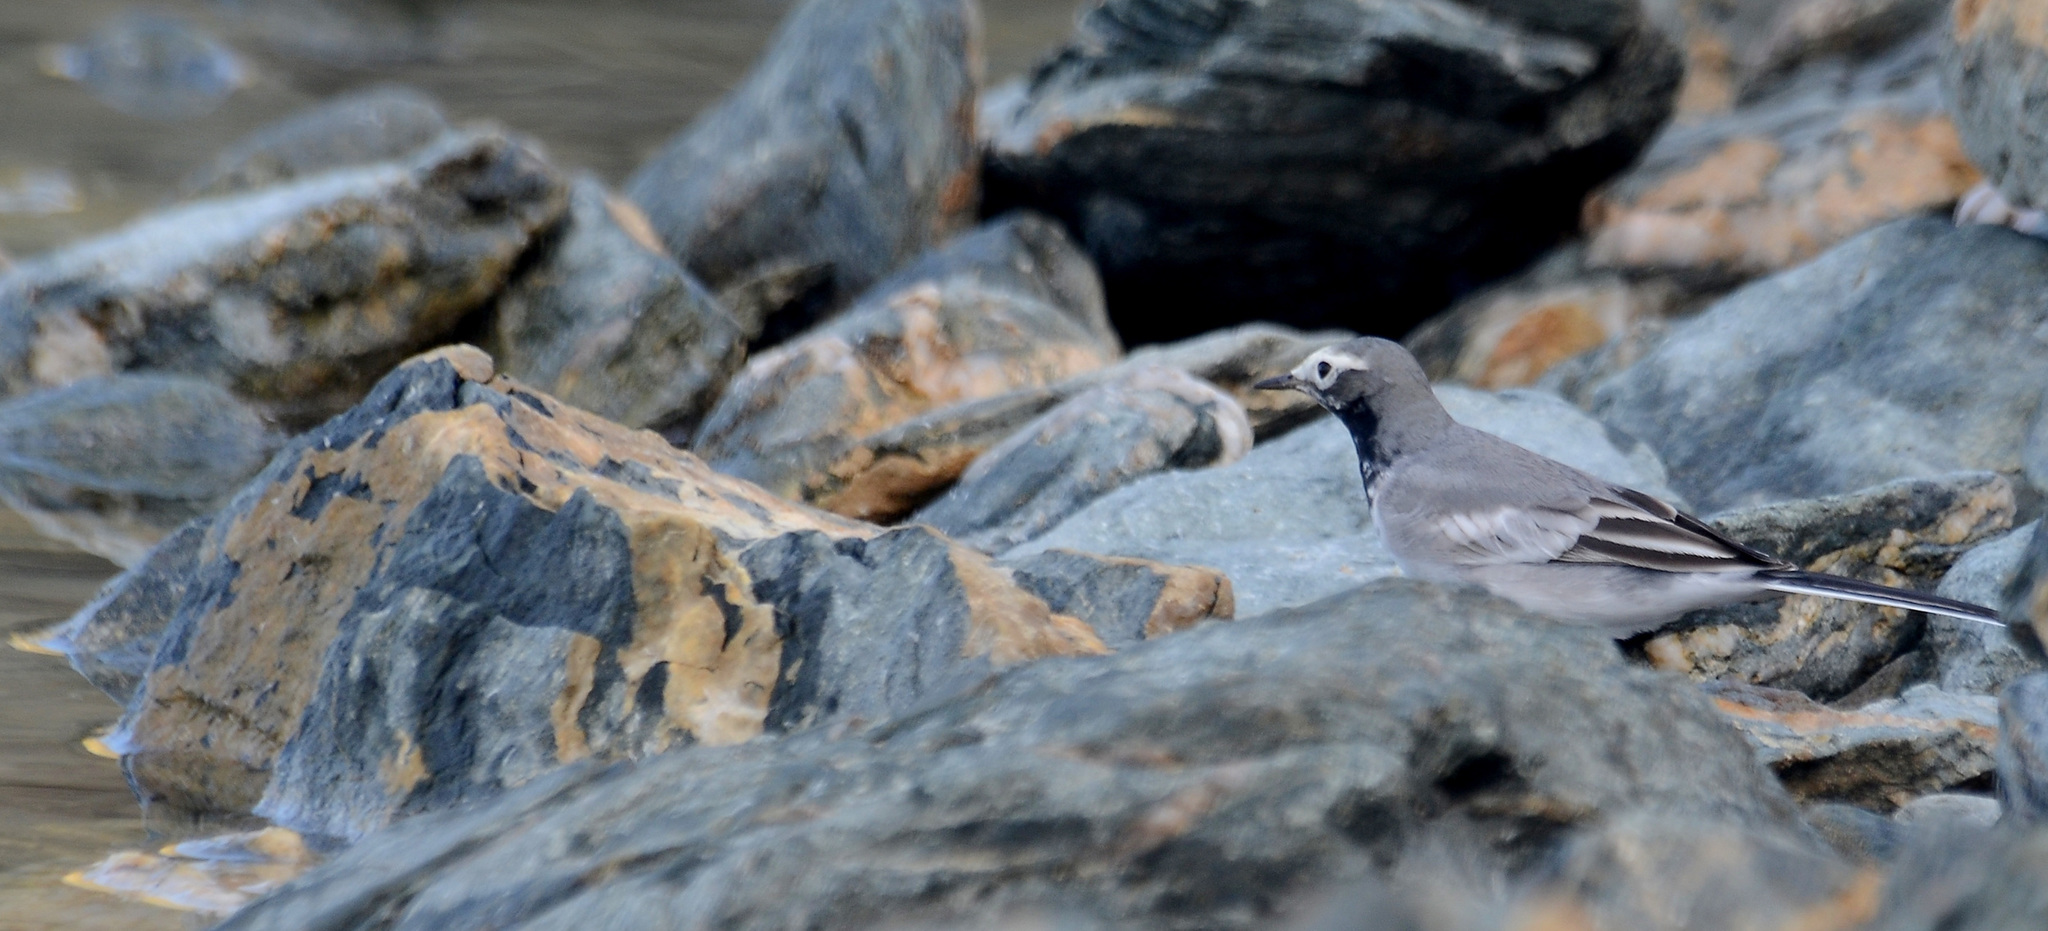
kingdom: Animalia
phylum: Chordata
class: Aves
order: Passeriformes
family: Motacillidae
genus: Motacilla
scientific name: Motacilla alba
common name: White wagtail
